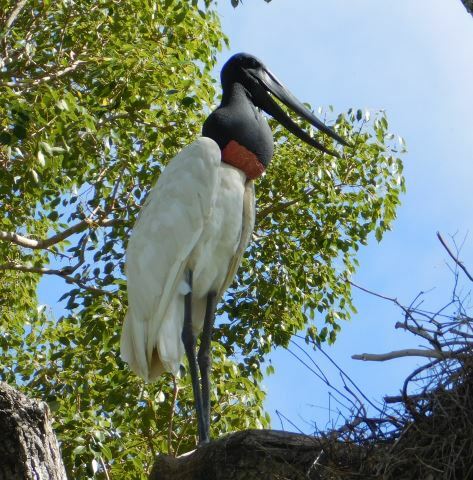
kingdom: Animalia
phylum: Chordata
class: Aves
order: Ciconiiformes
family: Ciconiidae
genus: Jabiru
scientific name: Jabiru mycteria
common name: Jabiru
